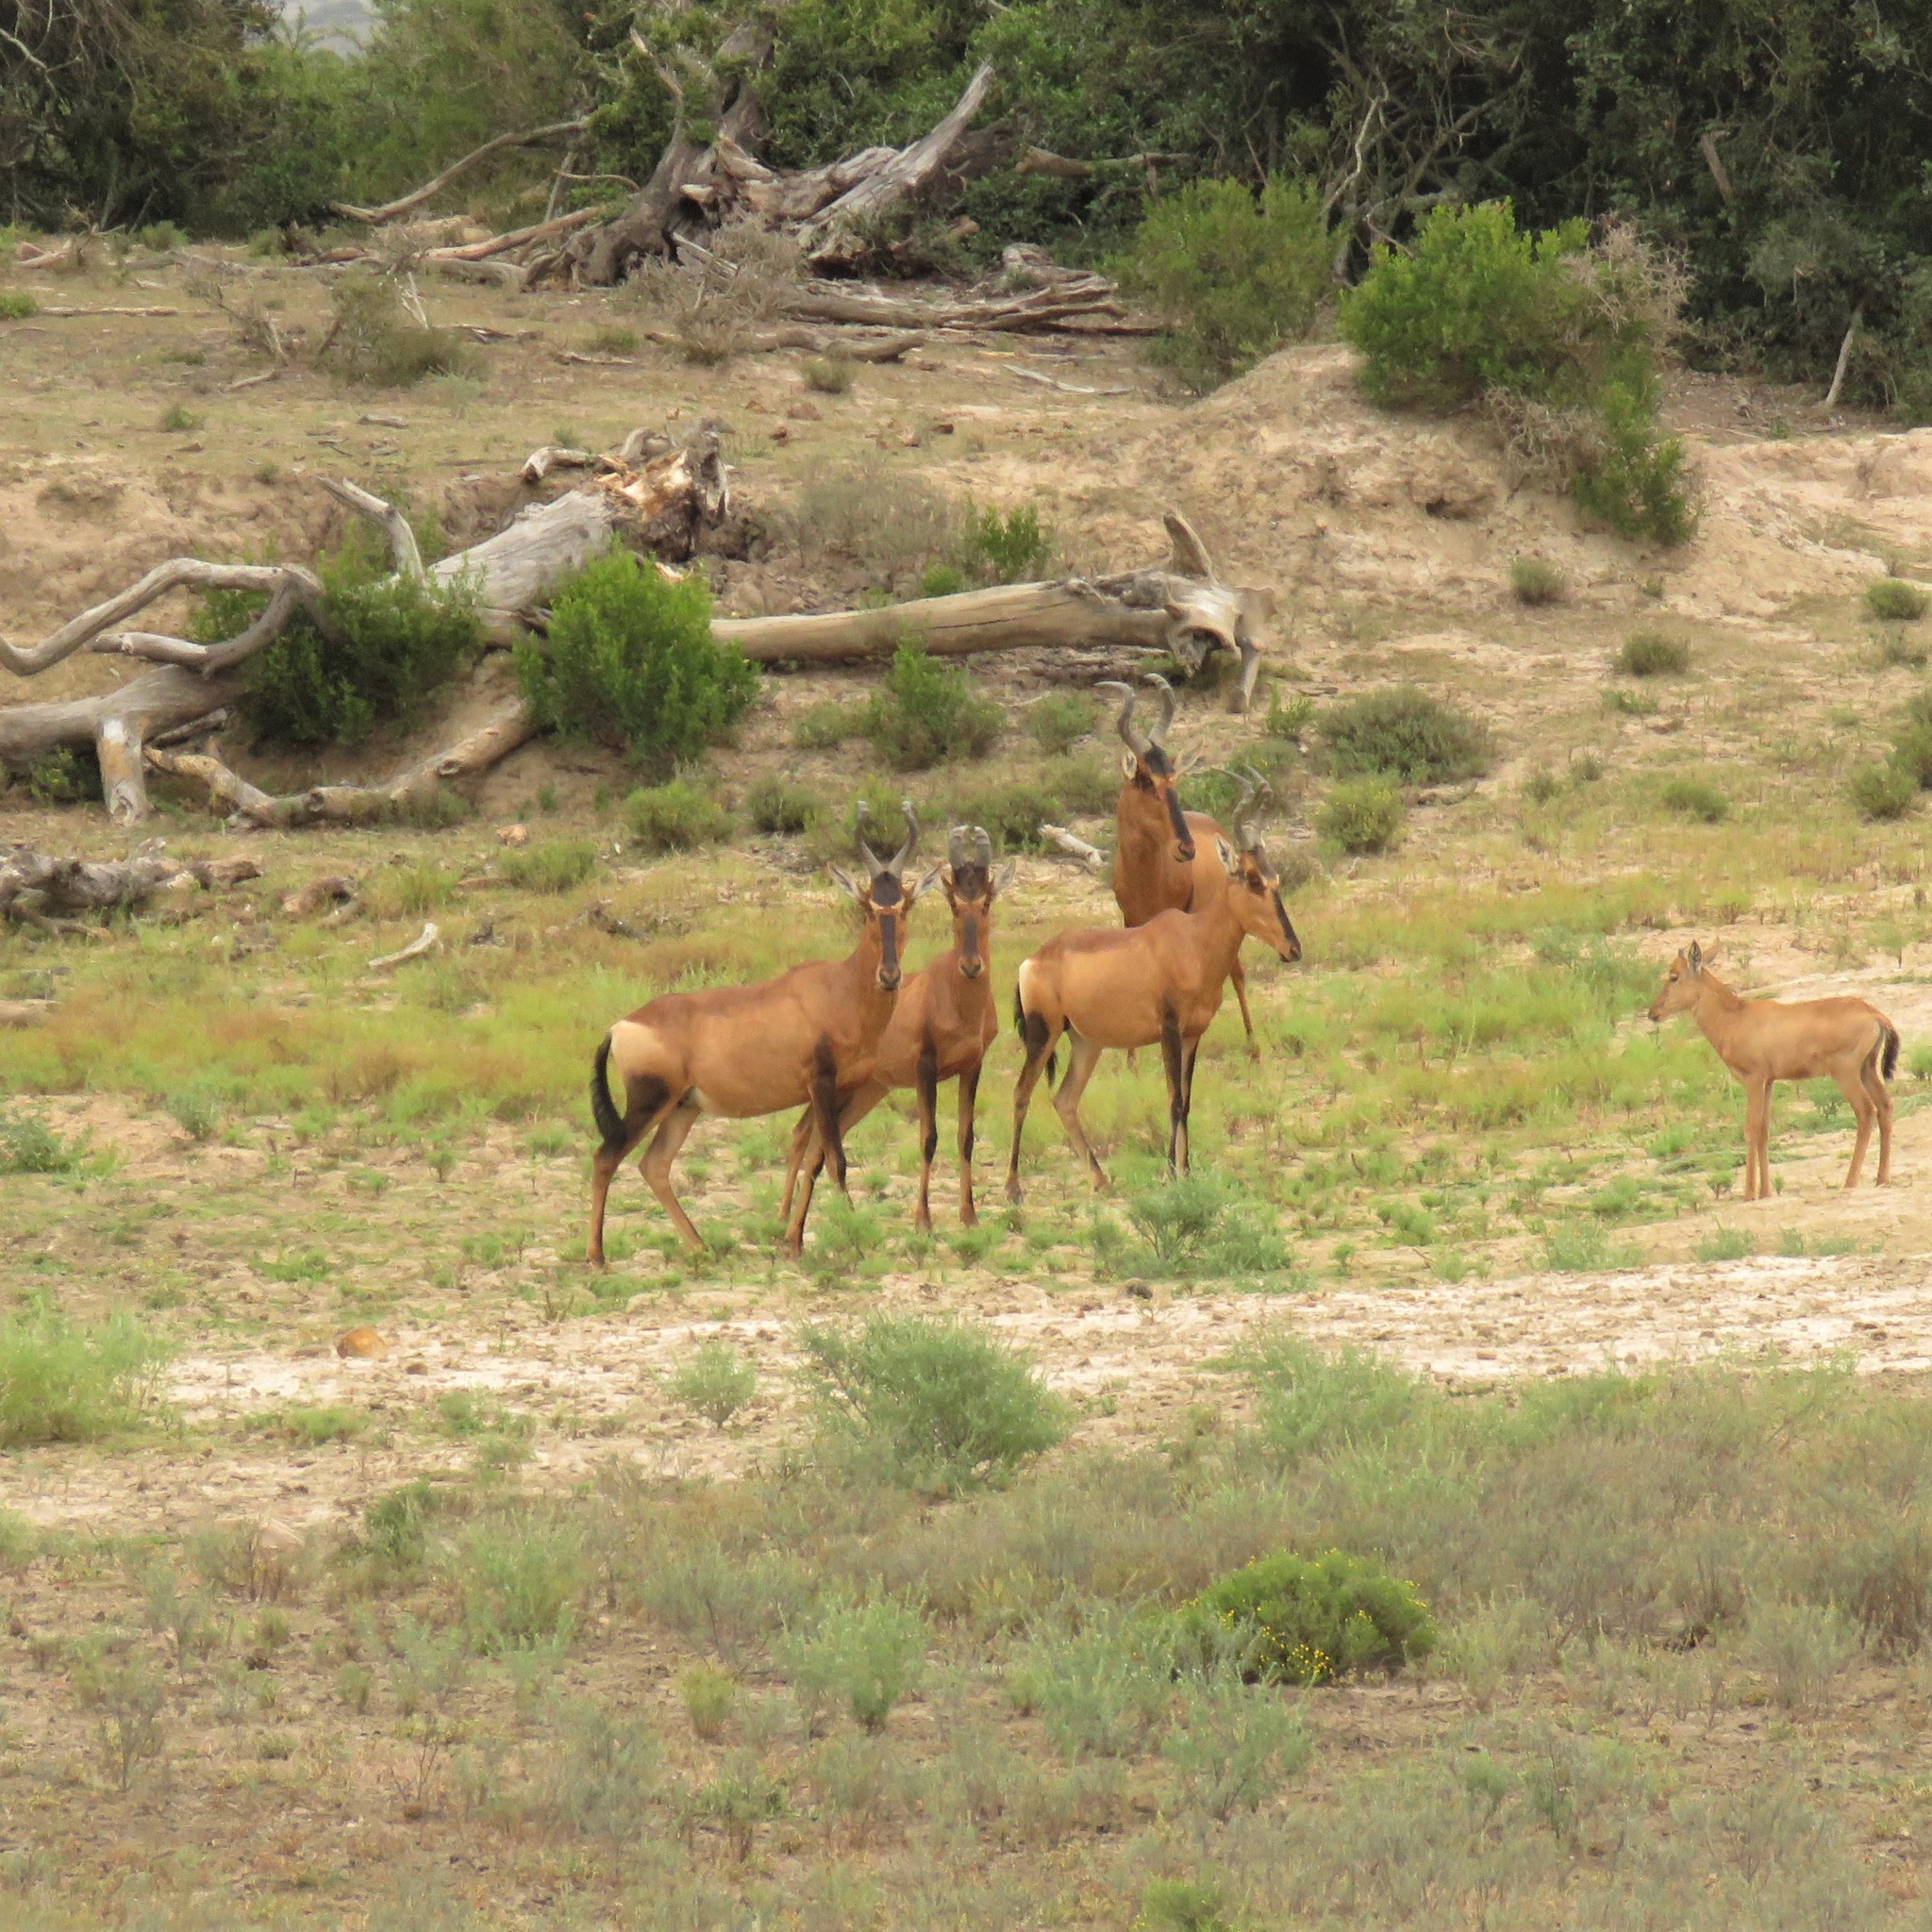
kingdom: Animalia
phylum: Chordata
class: Mammalia
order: Artiodactyla
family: Bovidae
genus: Alcelaphus
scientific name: Alcelaphus caama
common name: Red hartebeest
